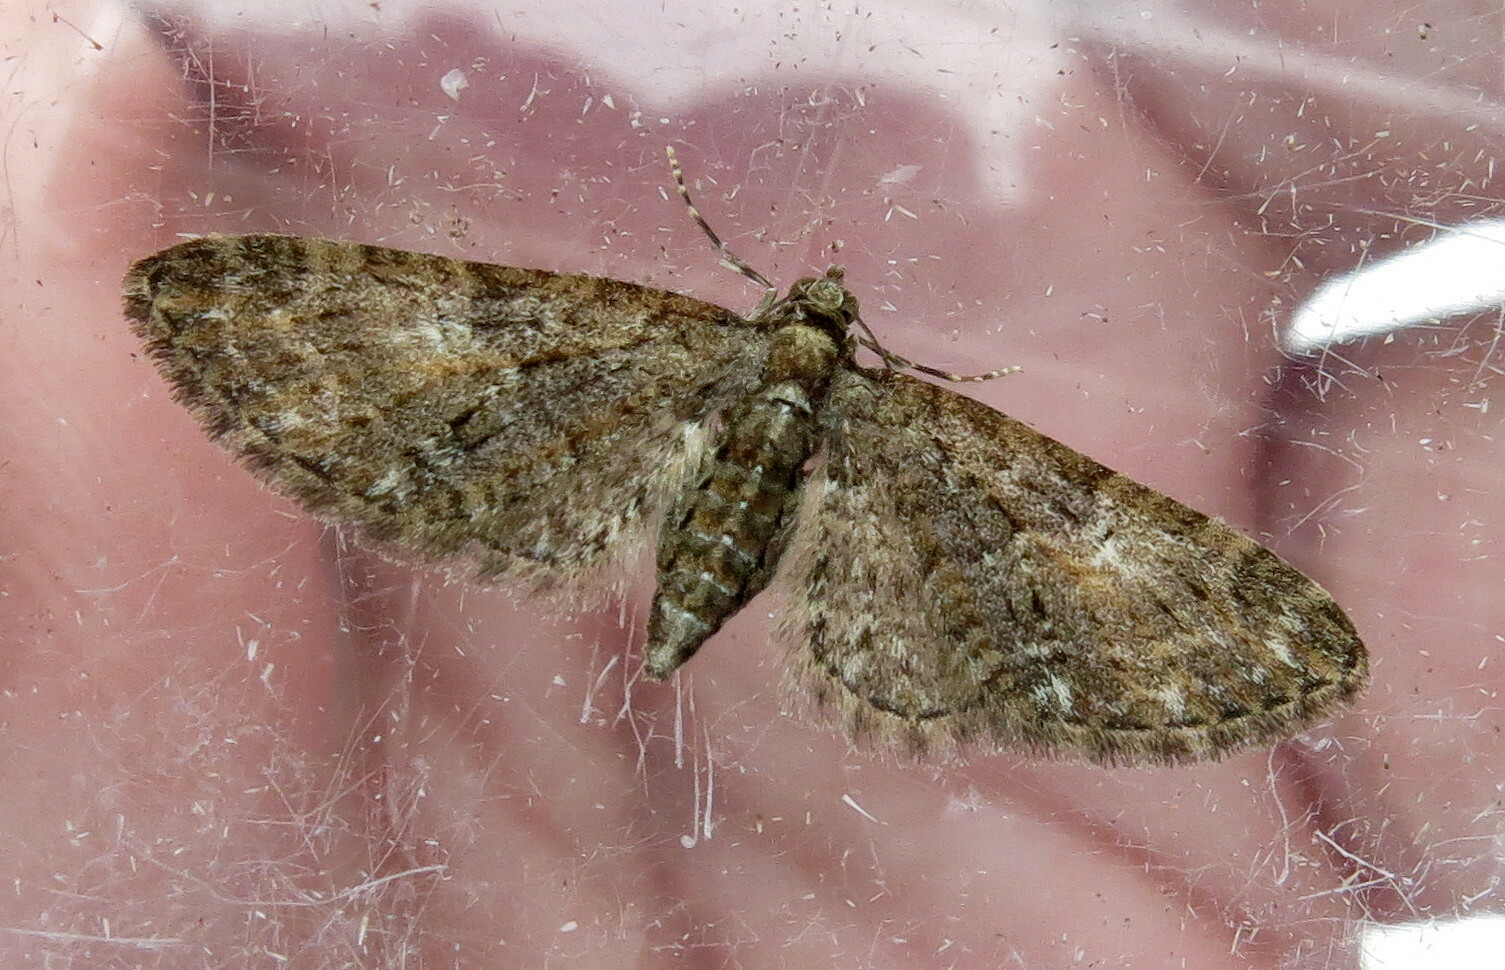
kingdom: Animalia
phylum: Arthropoda
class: Insecta
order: Lepidoptera
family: Geometridae
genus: Eupithecia
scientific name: Eupithecia abbreviata
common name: Brindled pug
